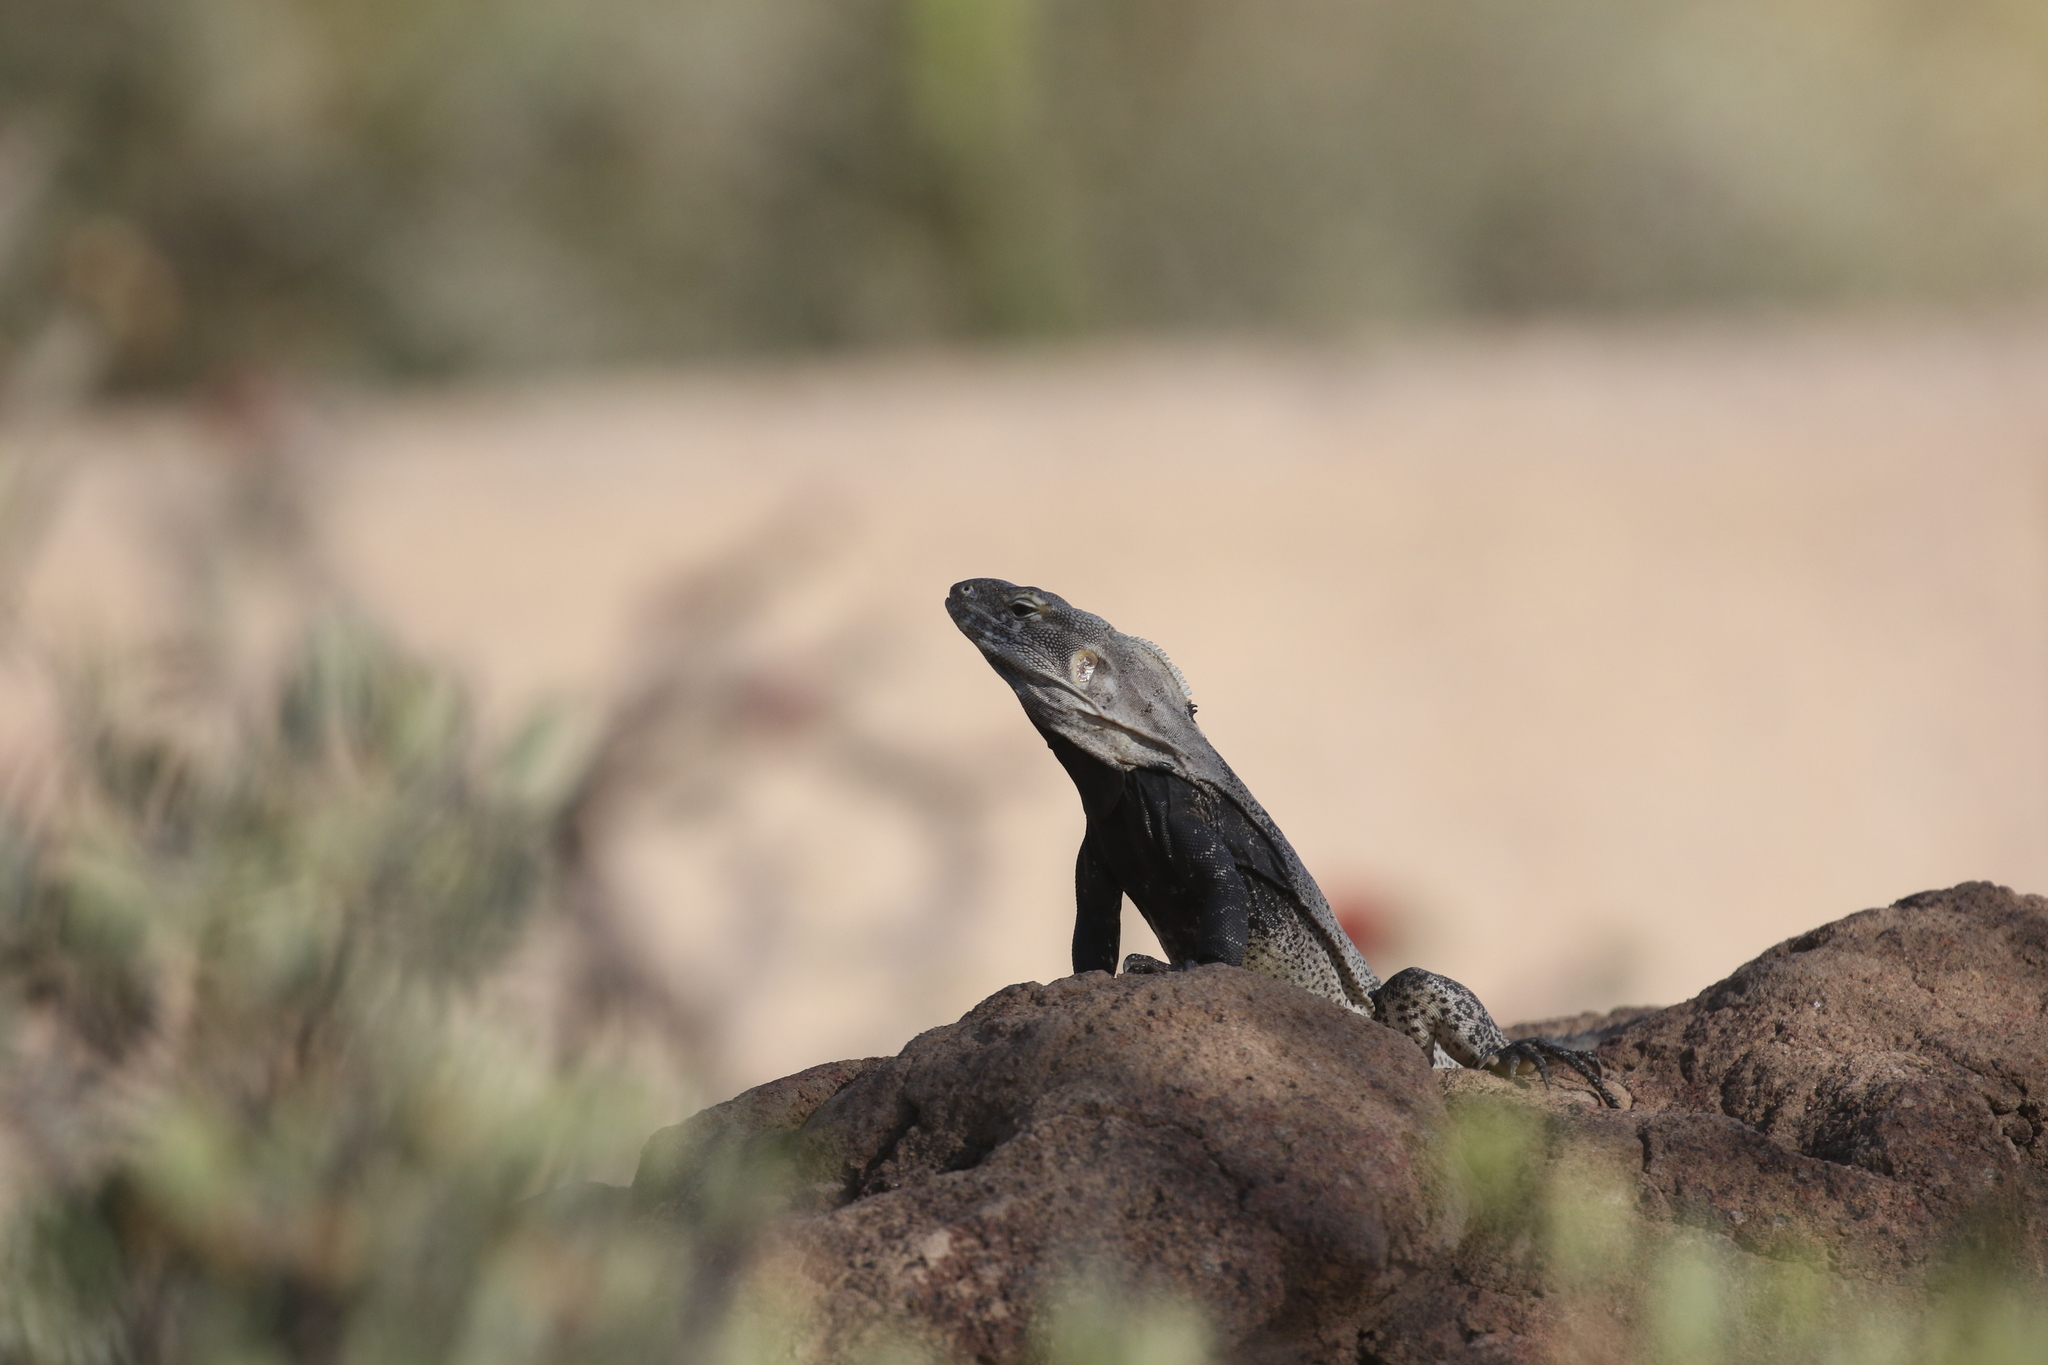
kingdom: Animalia
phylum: Chordata
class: Squamata
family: Iguanidae
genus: Ctenosaura
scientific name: Ctenosaura
